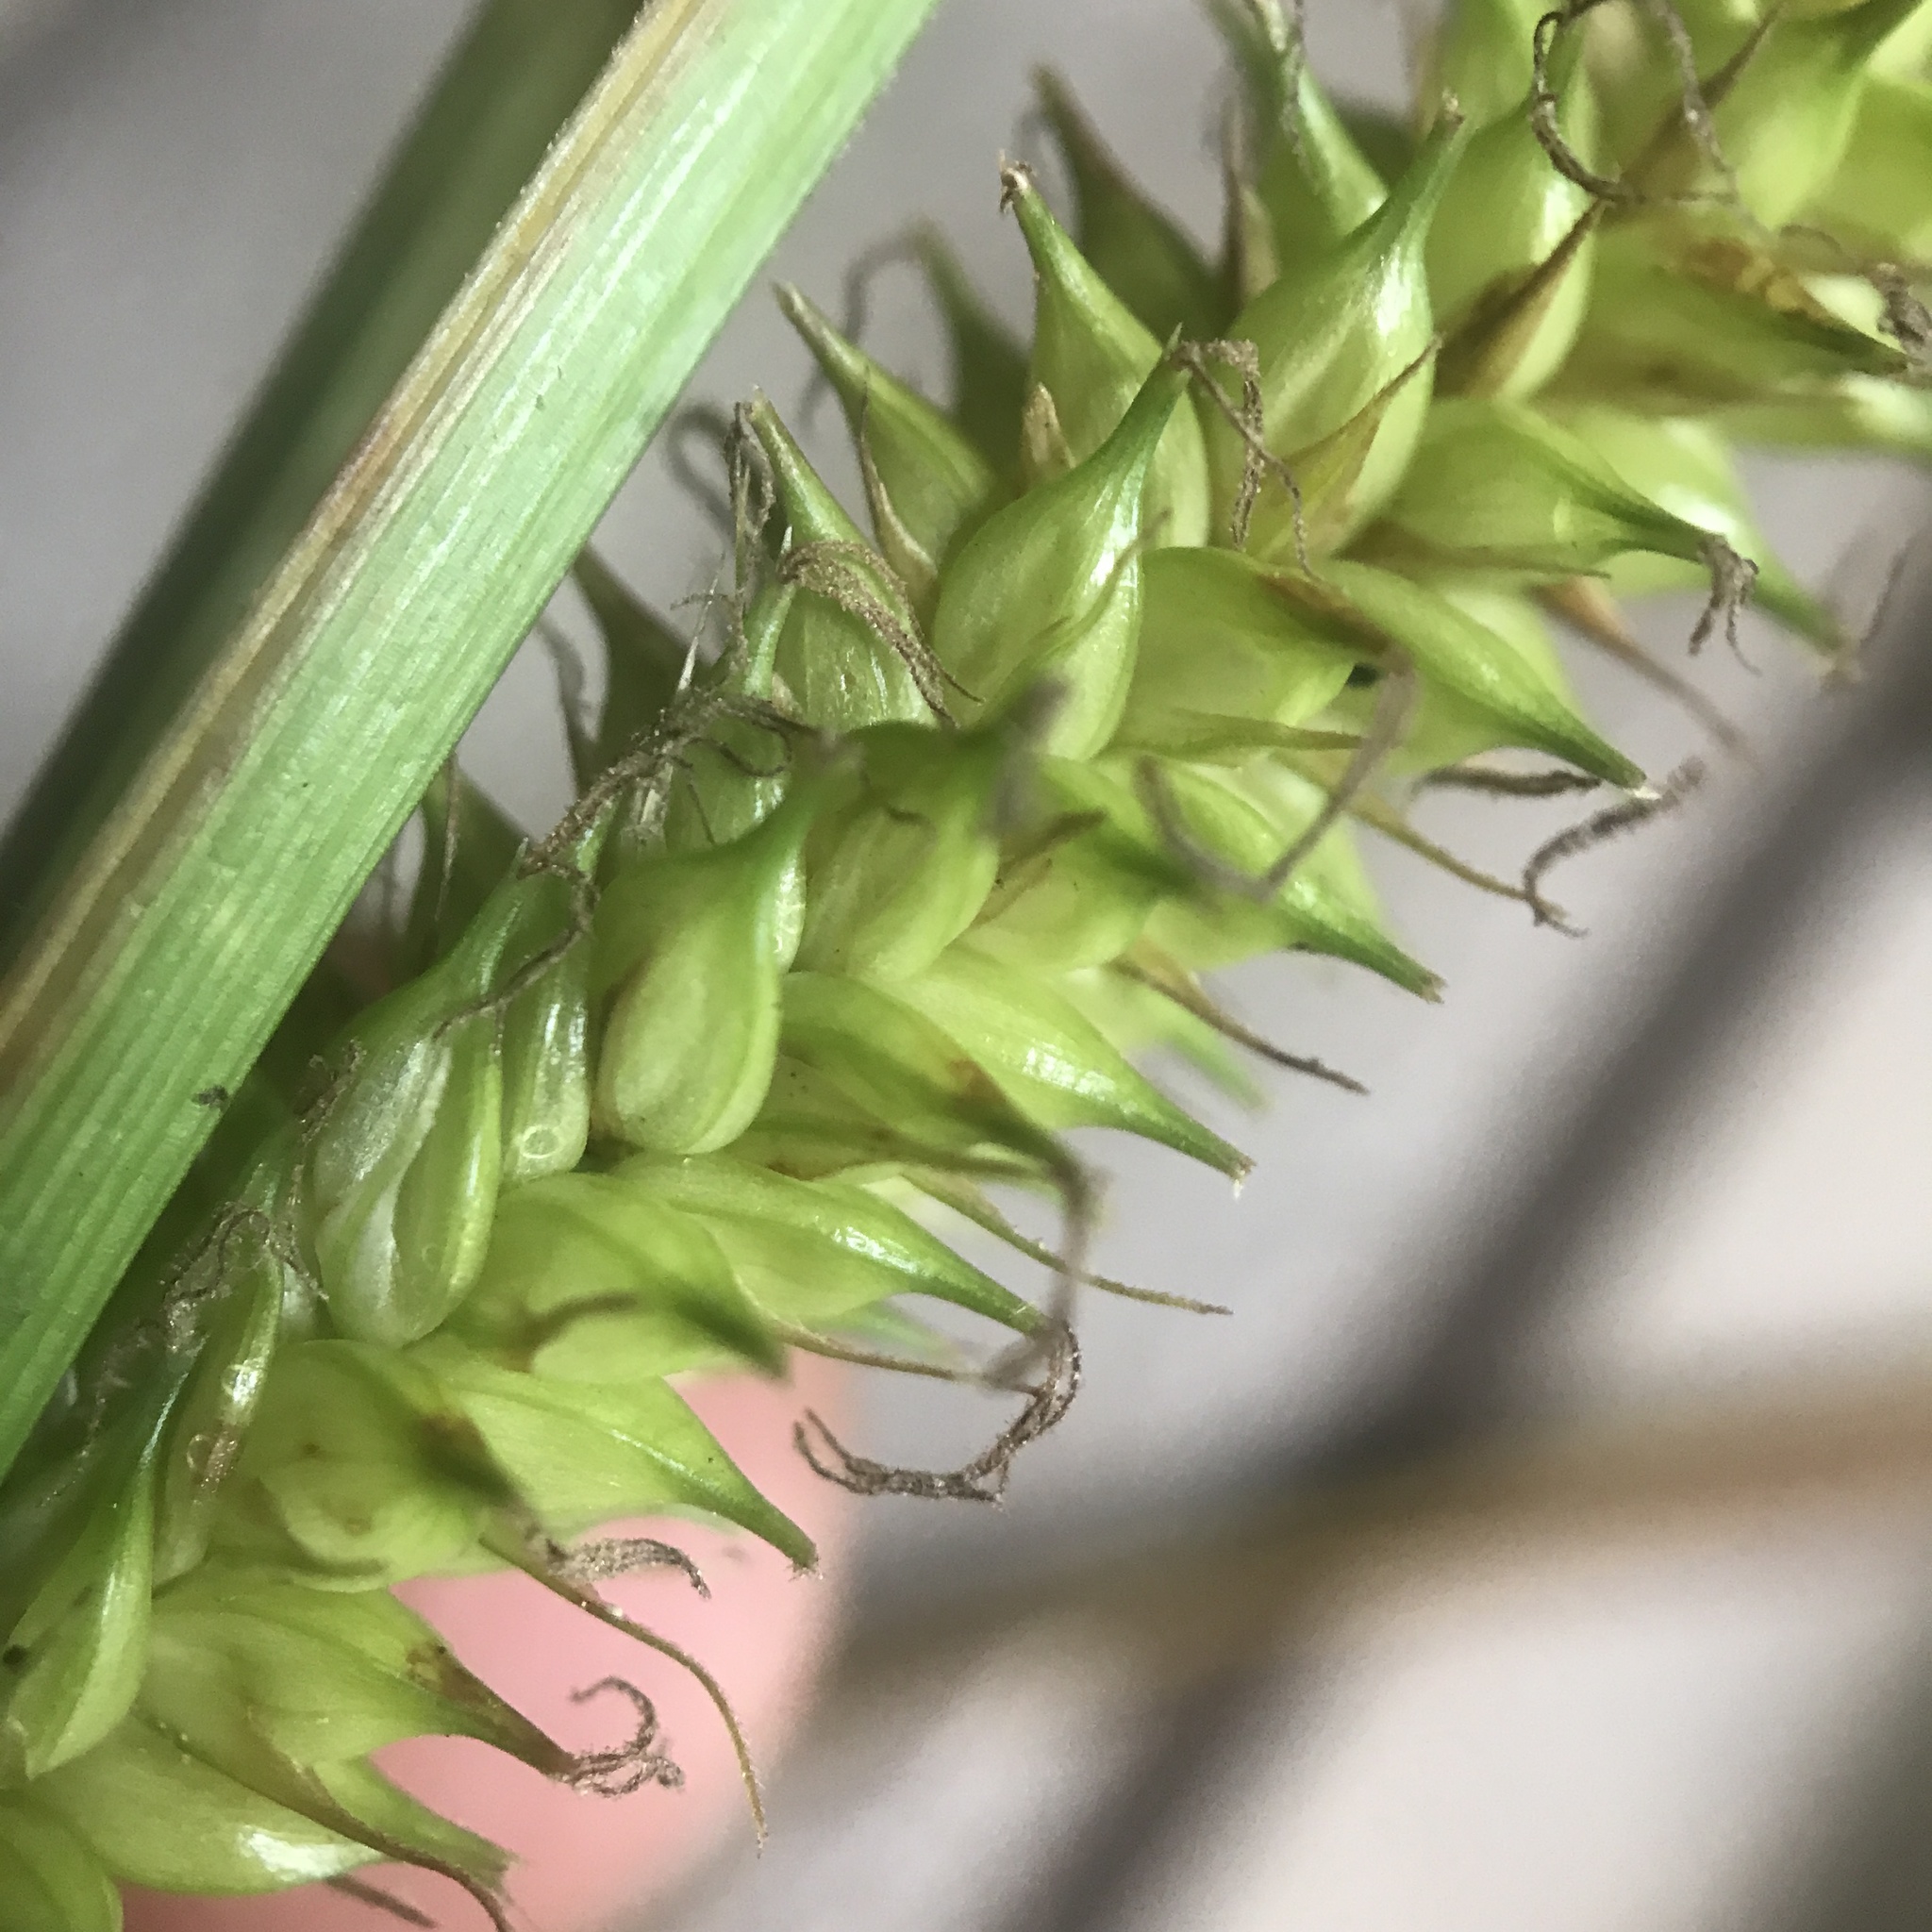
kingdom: Plantae
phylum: Tracheophyta
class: Liliopsida
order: Poales
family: Cyperaceae
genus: Carex
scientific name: Carex utriculata
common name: Beaked sedge
